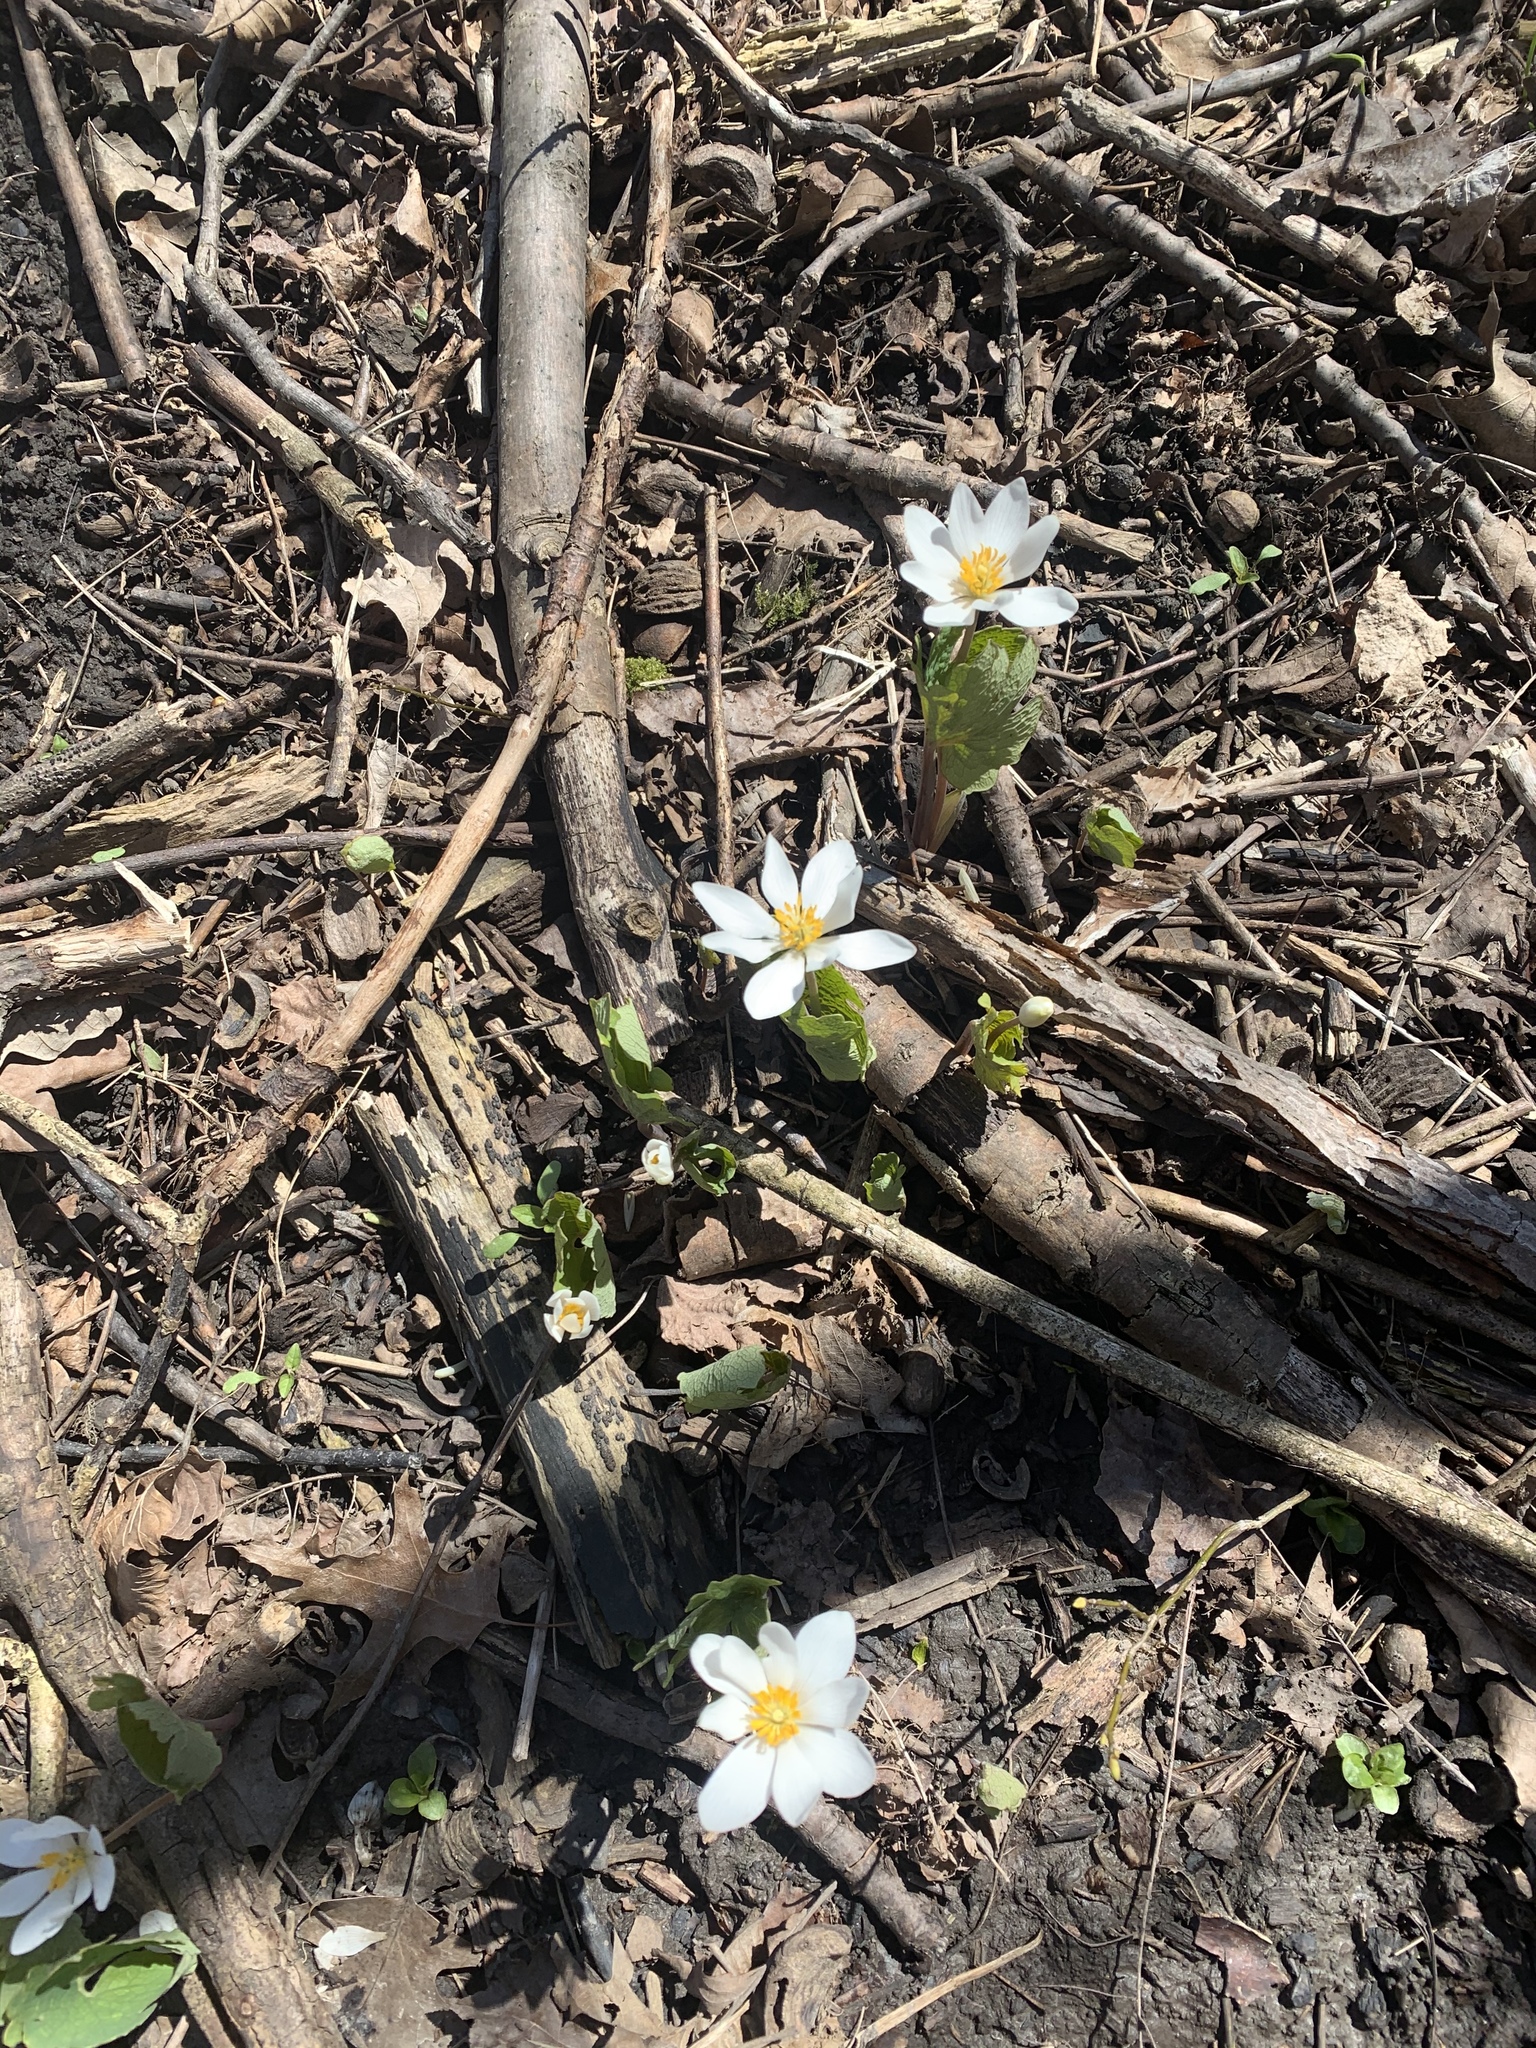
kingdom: Plantae
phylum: Tracheophyta
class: Magnoliopsida
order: Ranunculales
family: Papaveraceae
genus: Sanguinaria
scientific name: Sanguinaria canadensis
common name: Bloodroot
